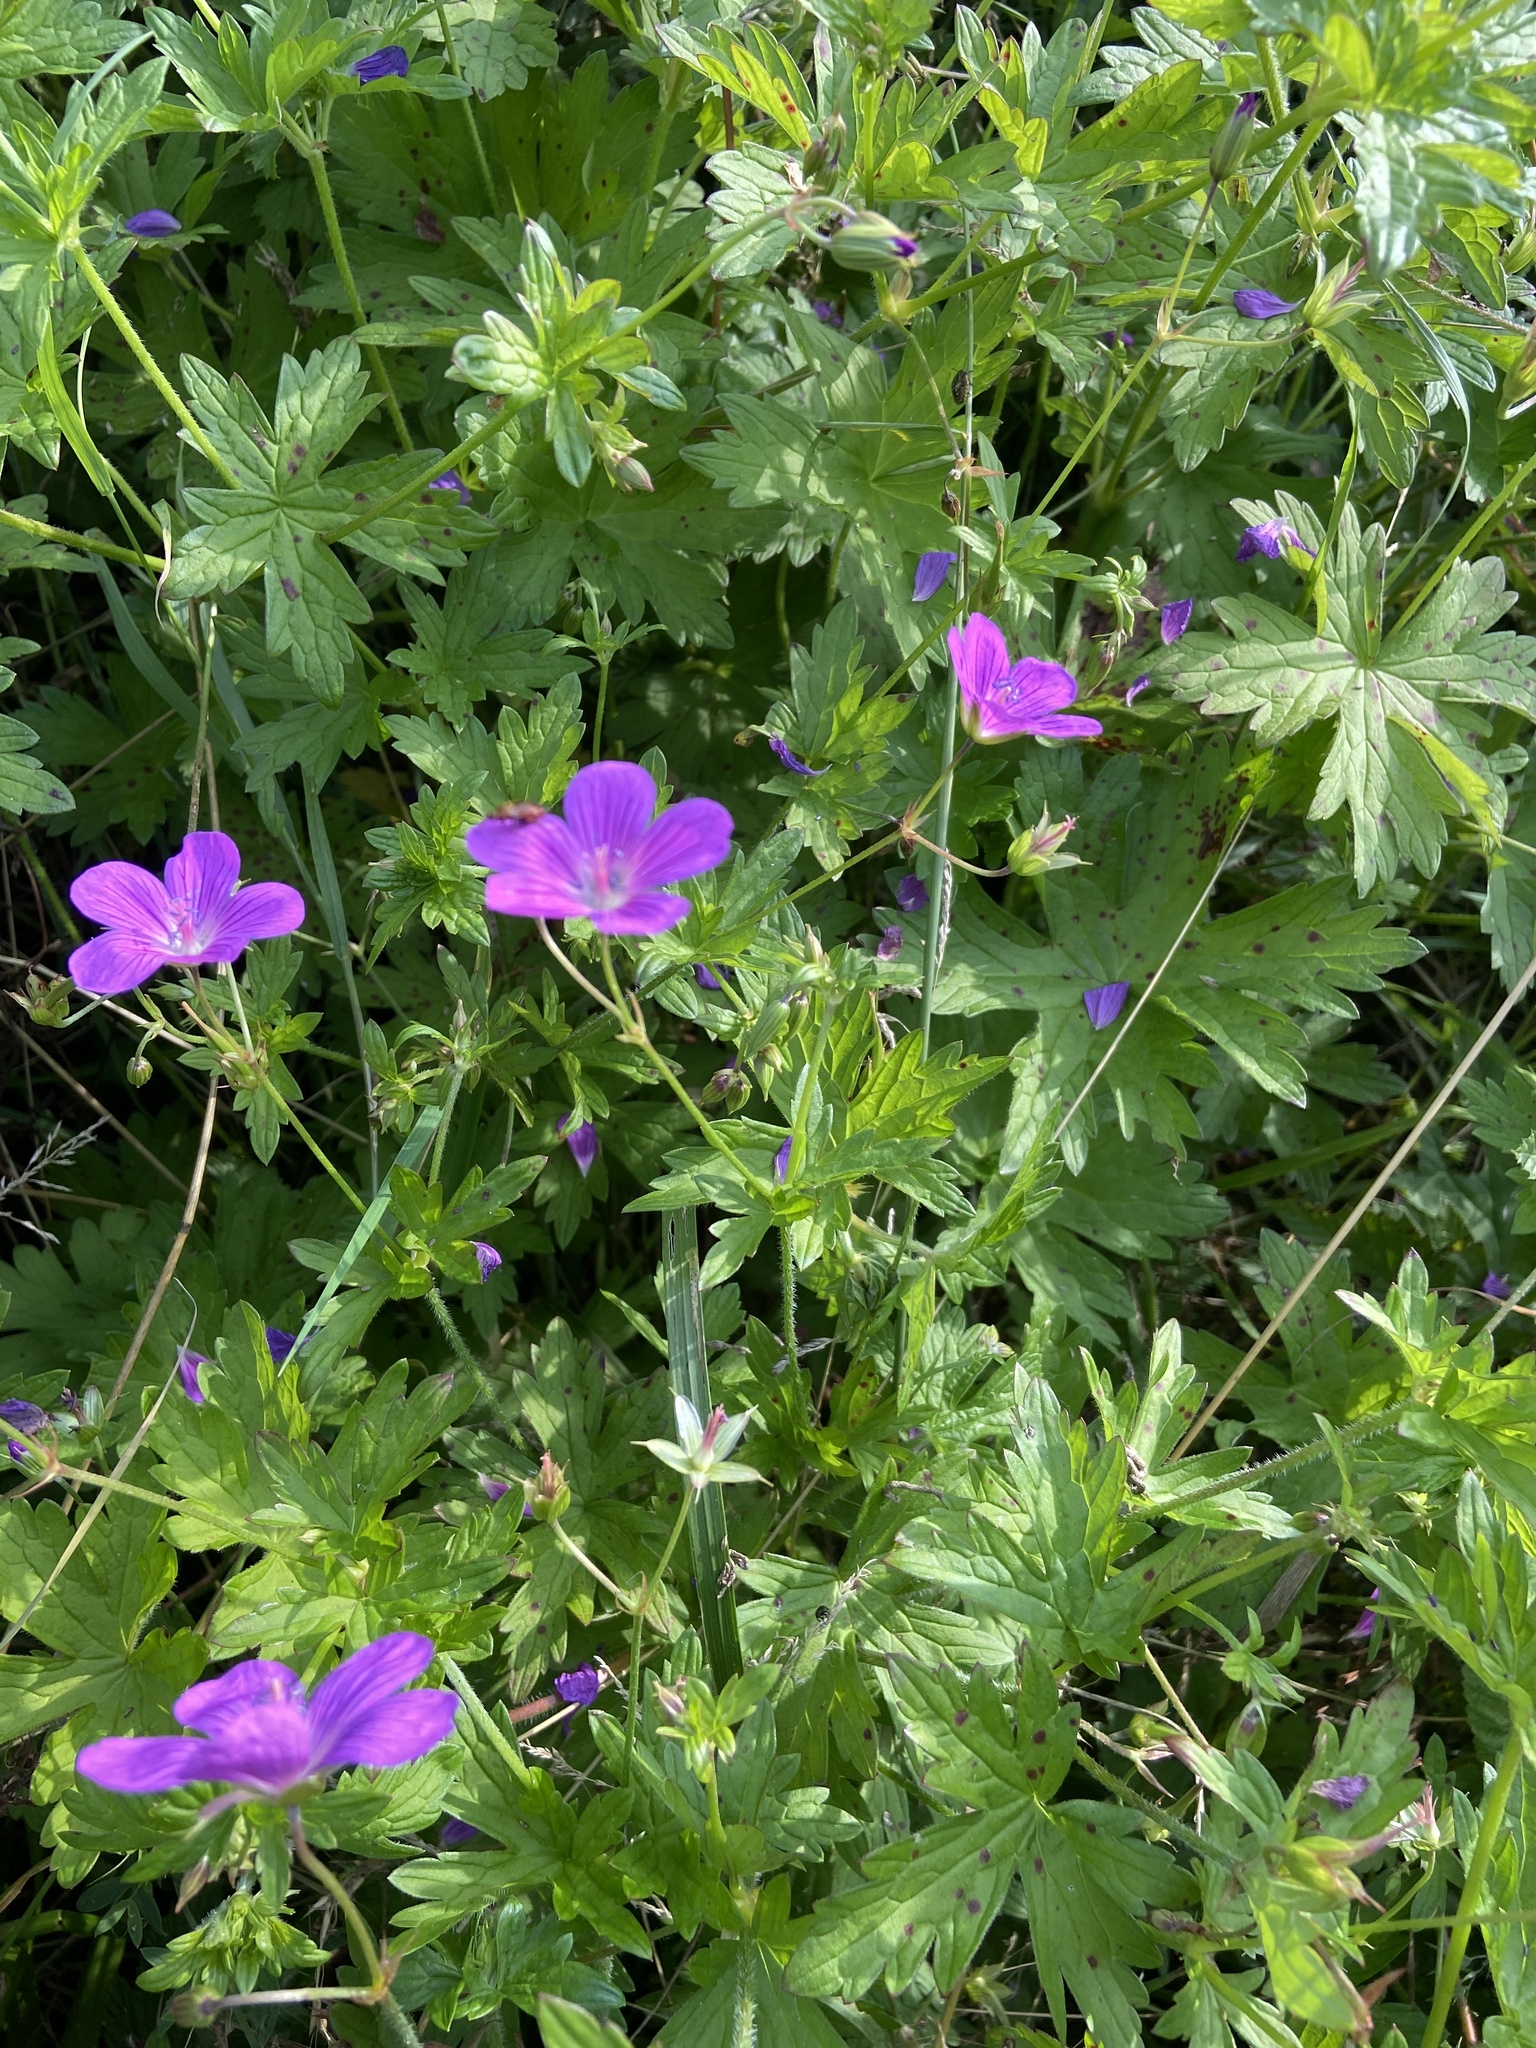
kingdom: Plantae
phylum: Tracheophyta
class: Magnoliopsida
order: Geraniales
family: Geraniaceae
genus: Geranium
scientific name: Geranium palustre
